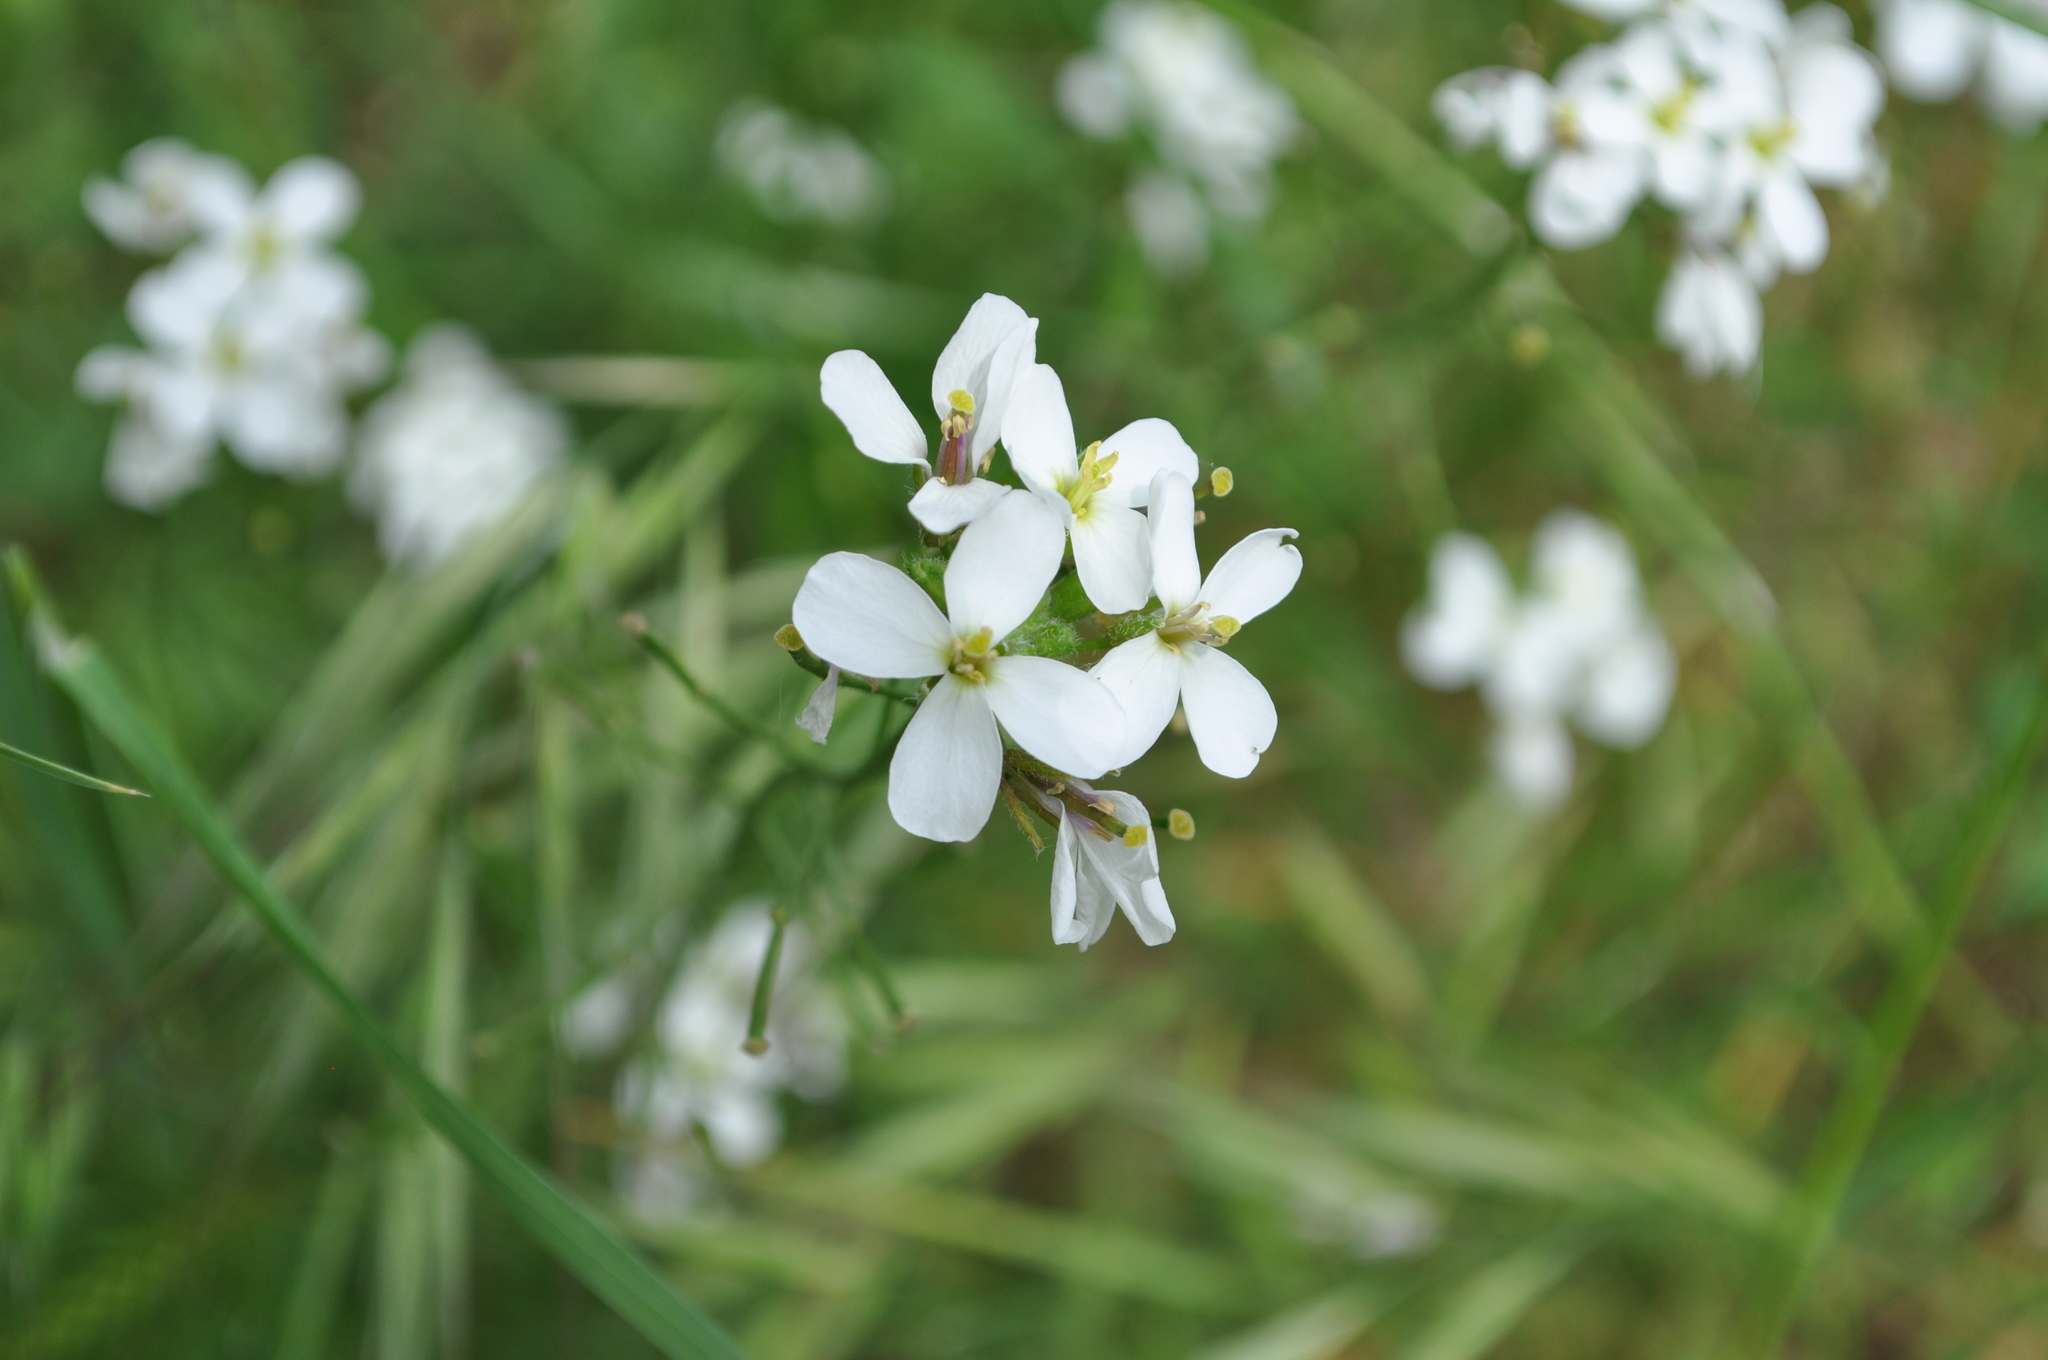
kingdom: Plantae
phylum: Tracheophyta
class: Magnoliopsida
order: Brassicales
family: Brassicaceae
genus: Diplotaxis
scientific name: Diplotaxis erucoides
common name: White rocket
